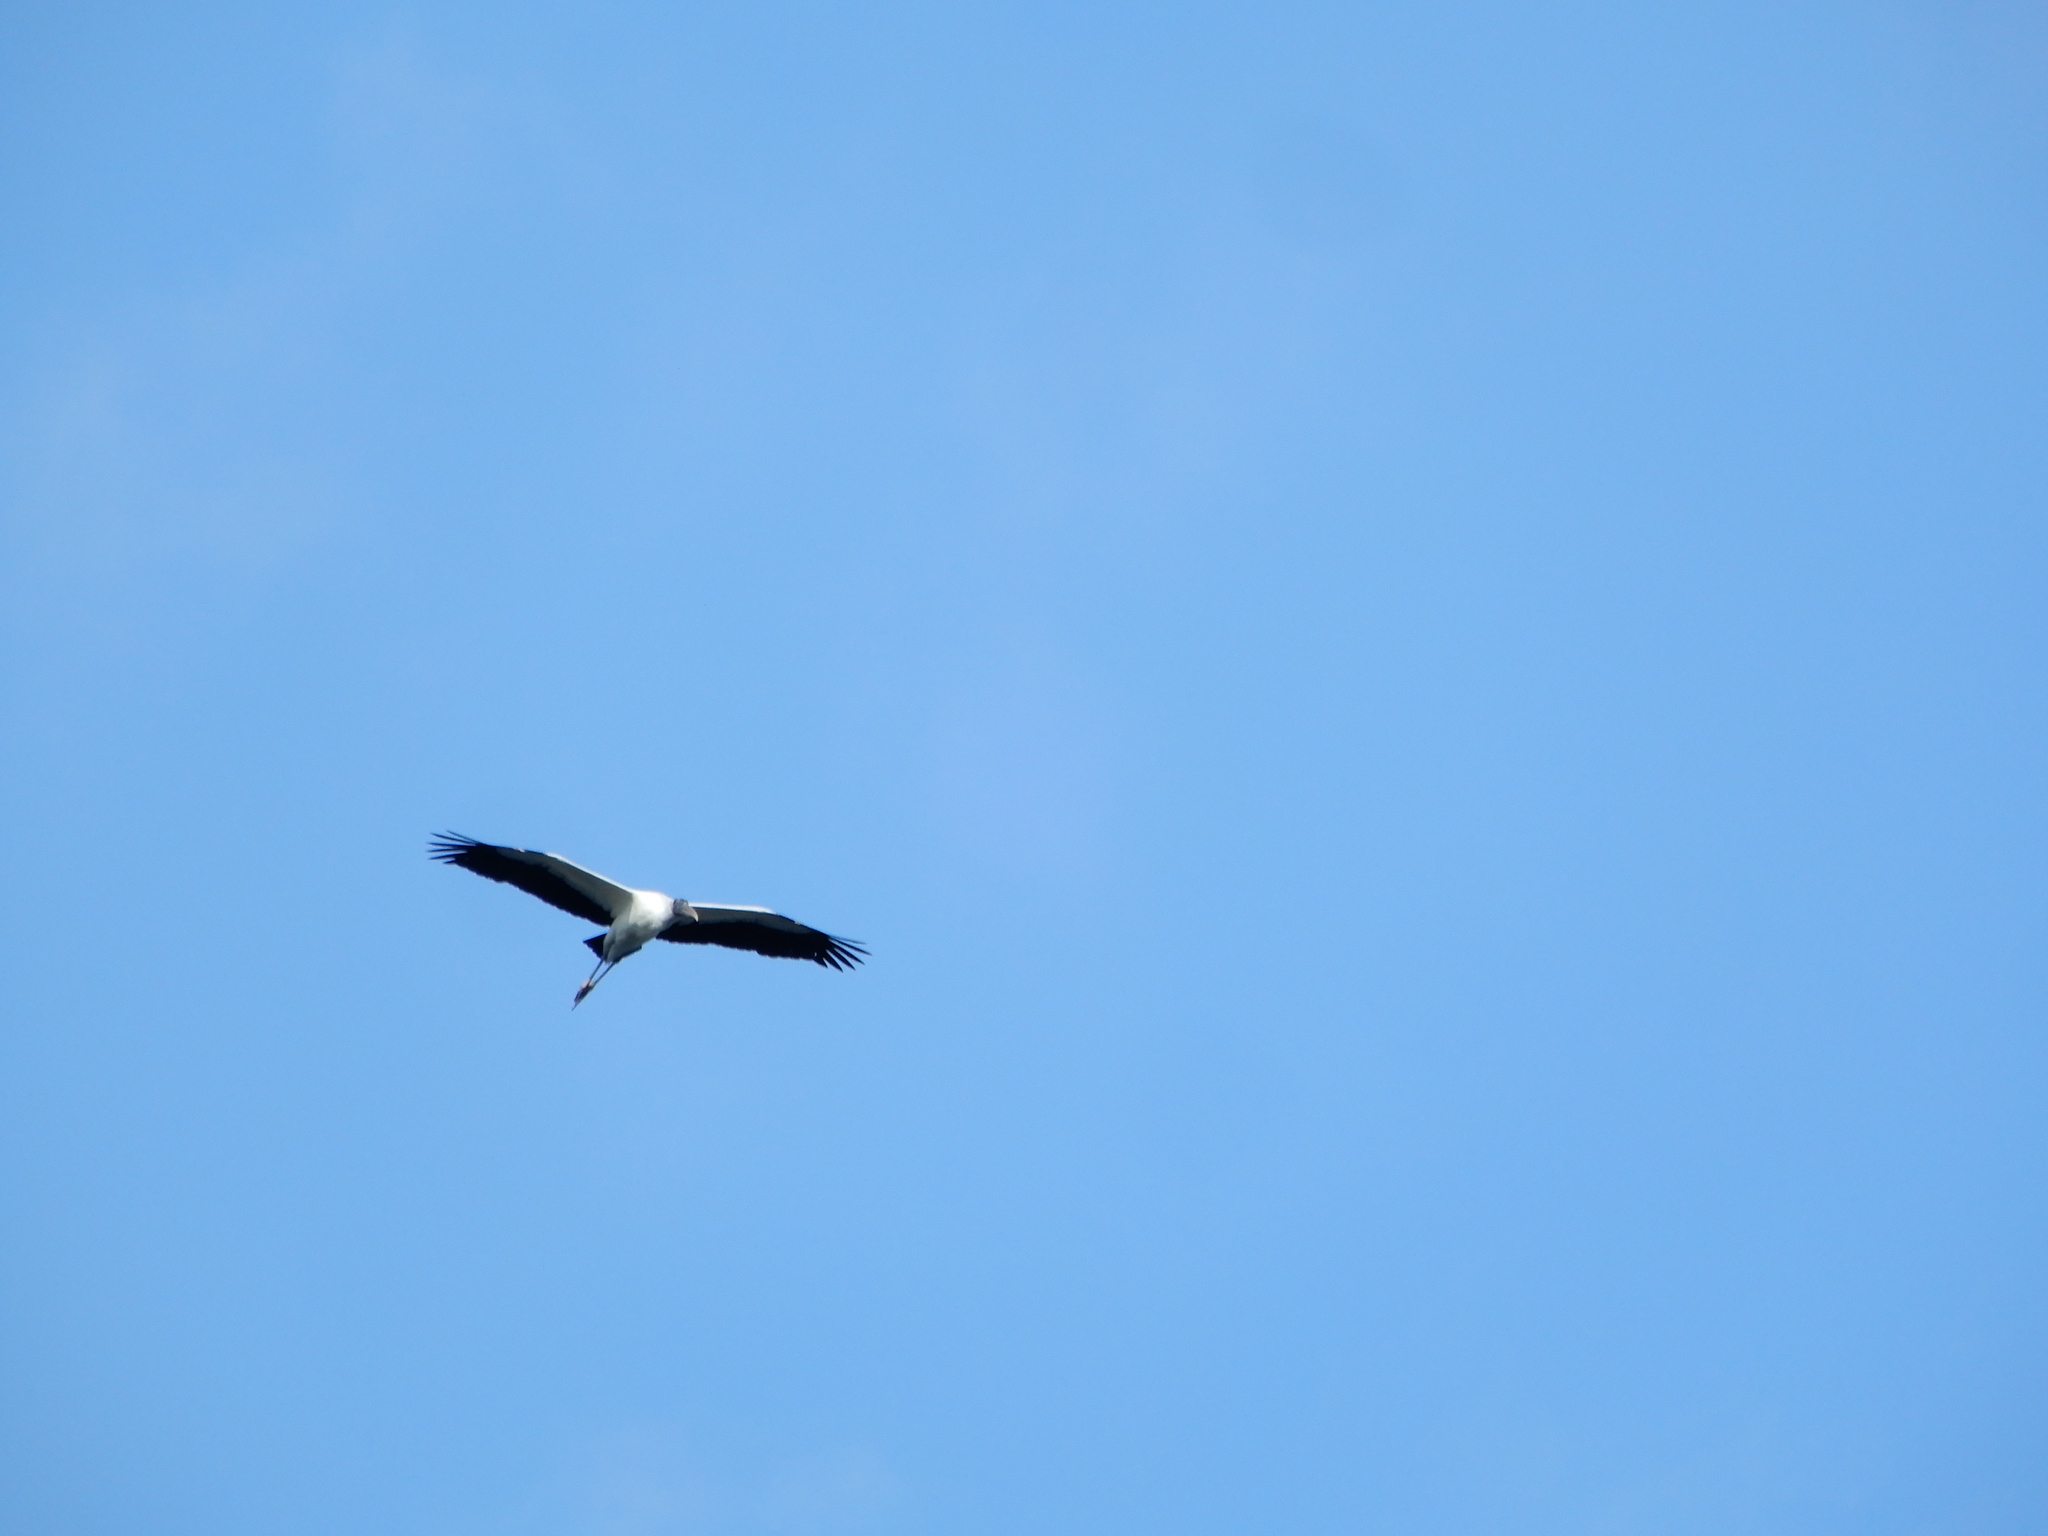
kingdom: Animalia
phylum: Chordata
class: Aves
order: Ciconiiformes
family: Ciconiidae
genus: Mycteria
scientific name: Mycteria americana
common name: Wood stork
